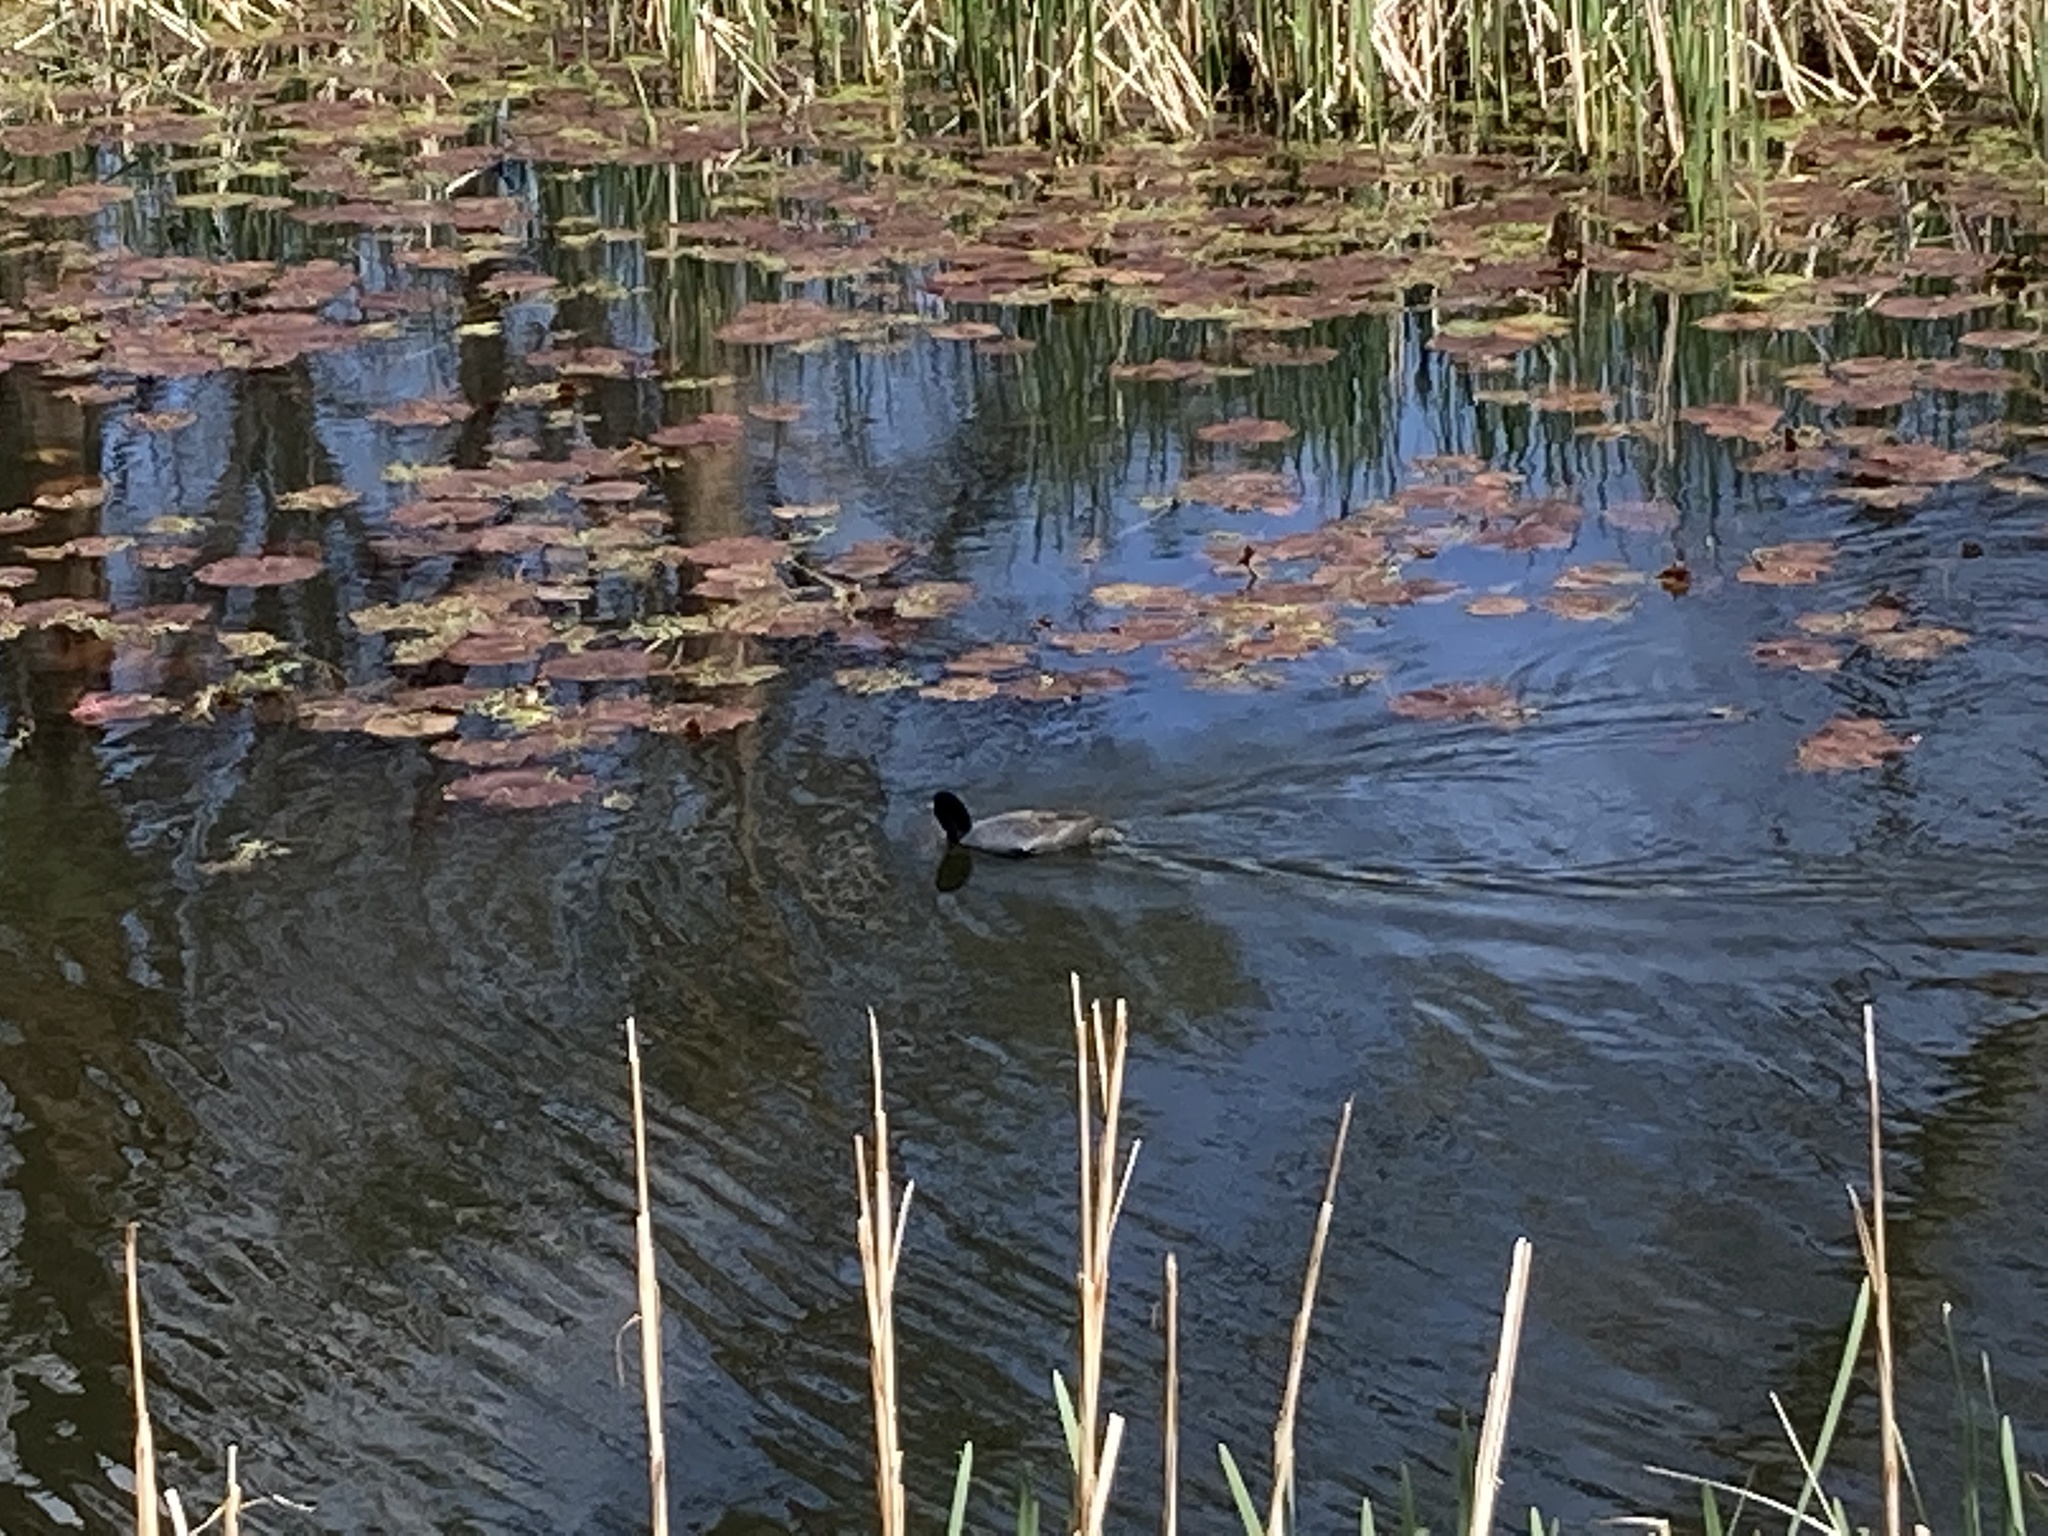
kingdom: Animalia
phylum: Chordata
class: Aves
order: Gruiformes
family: Rallidae
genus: Fulica
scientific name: Fulica americana
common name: American coot
